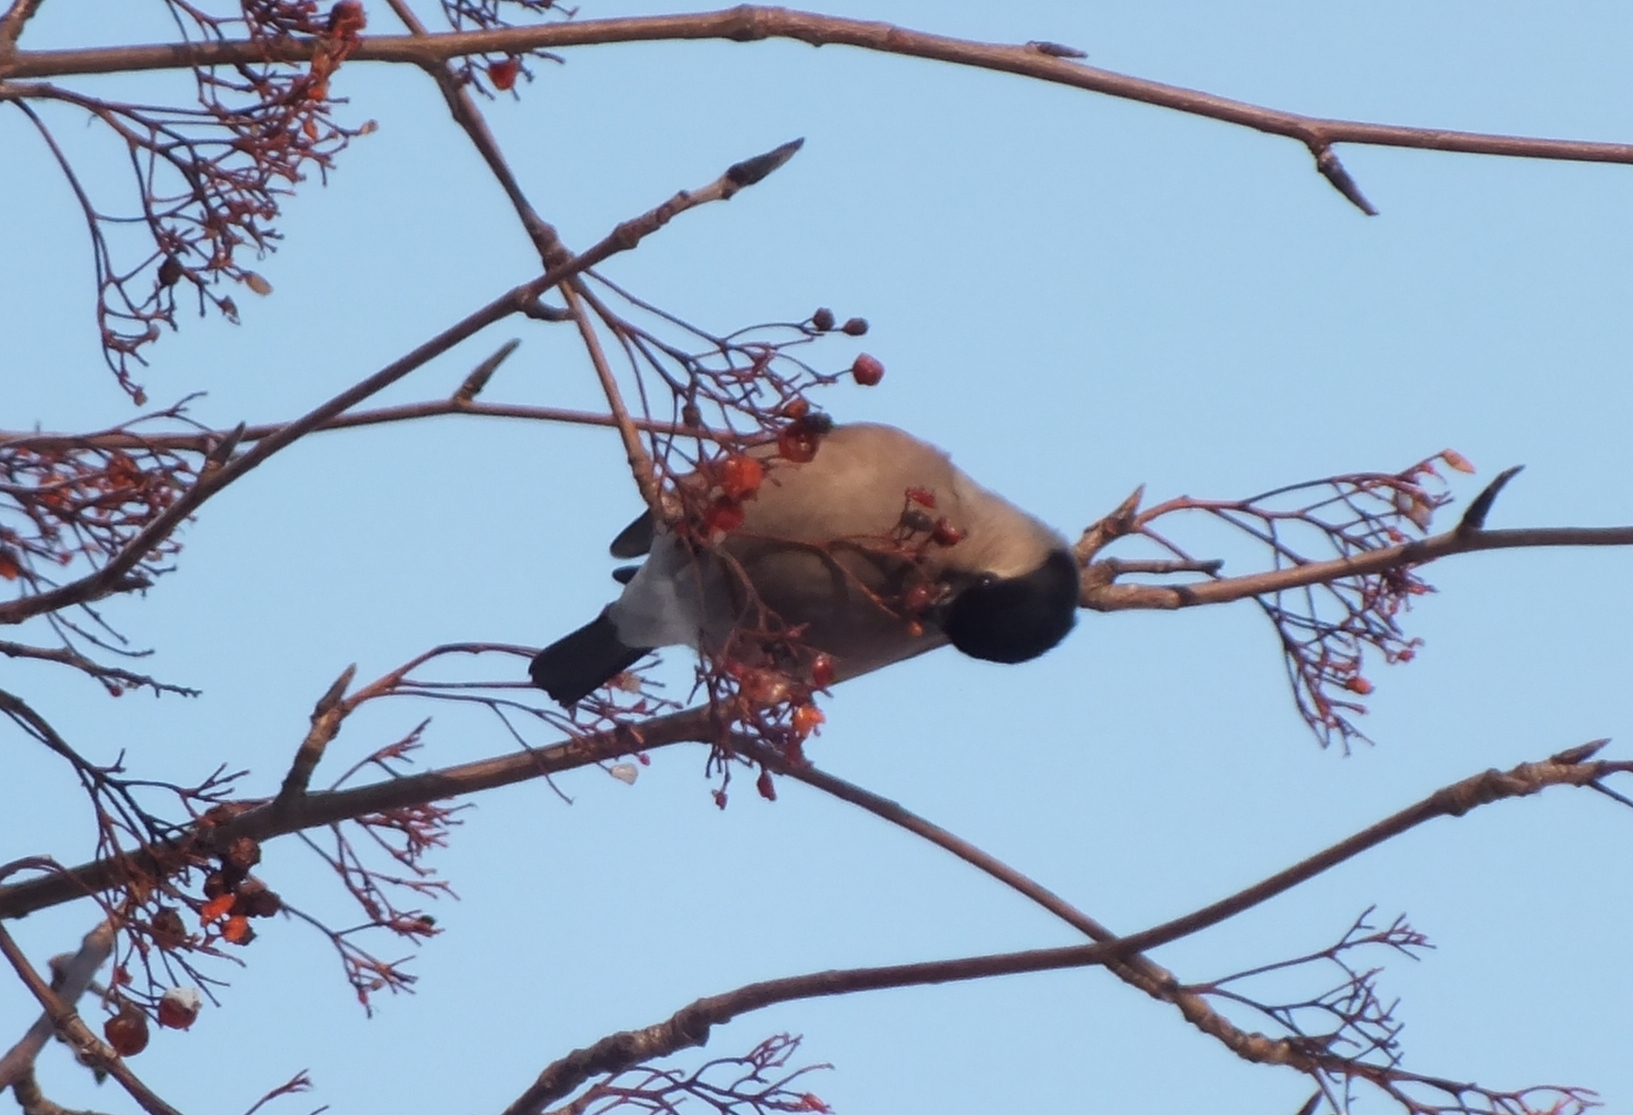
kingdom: Animalia
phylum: Chordata
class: Aves
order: Passeriformes
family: Fringillidae
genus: Pyrrhula
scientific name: Pyrrhula pyrrhula
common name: Eurasian bullfinch
